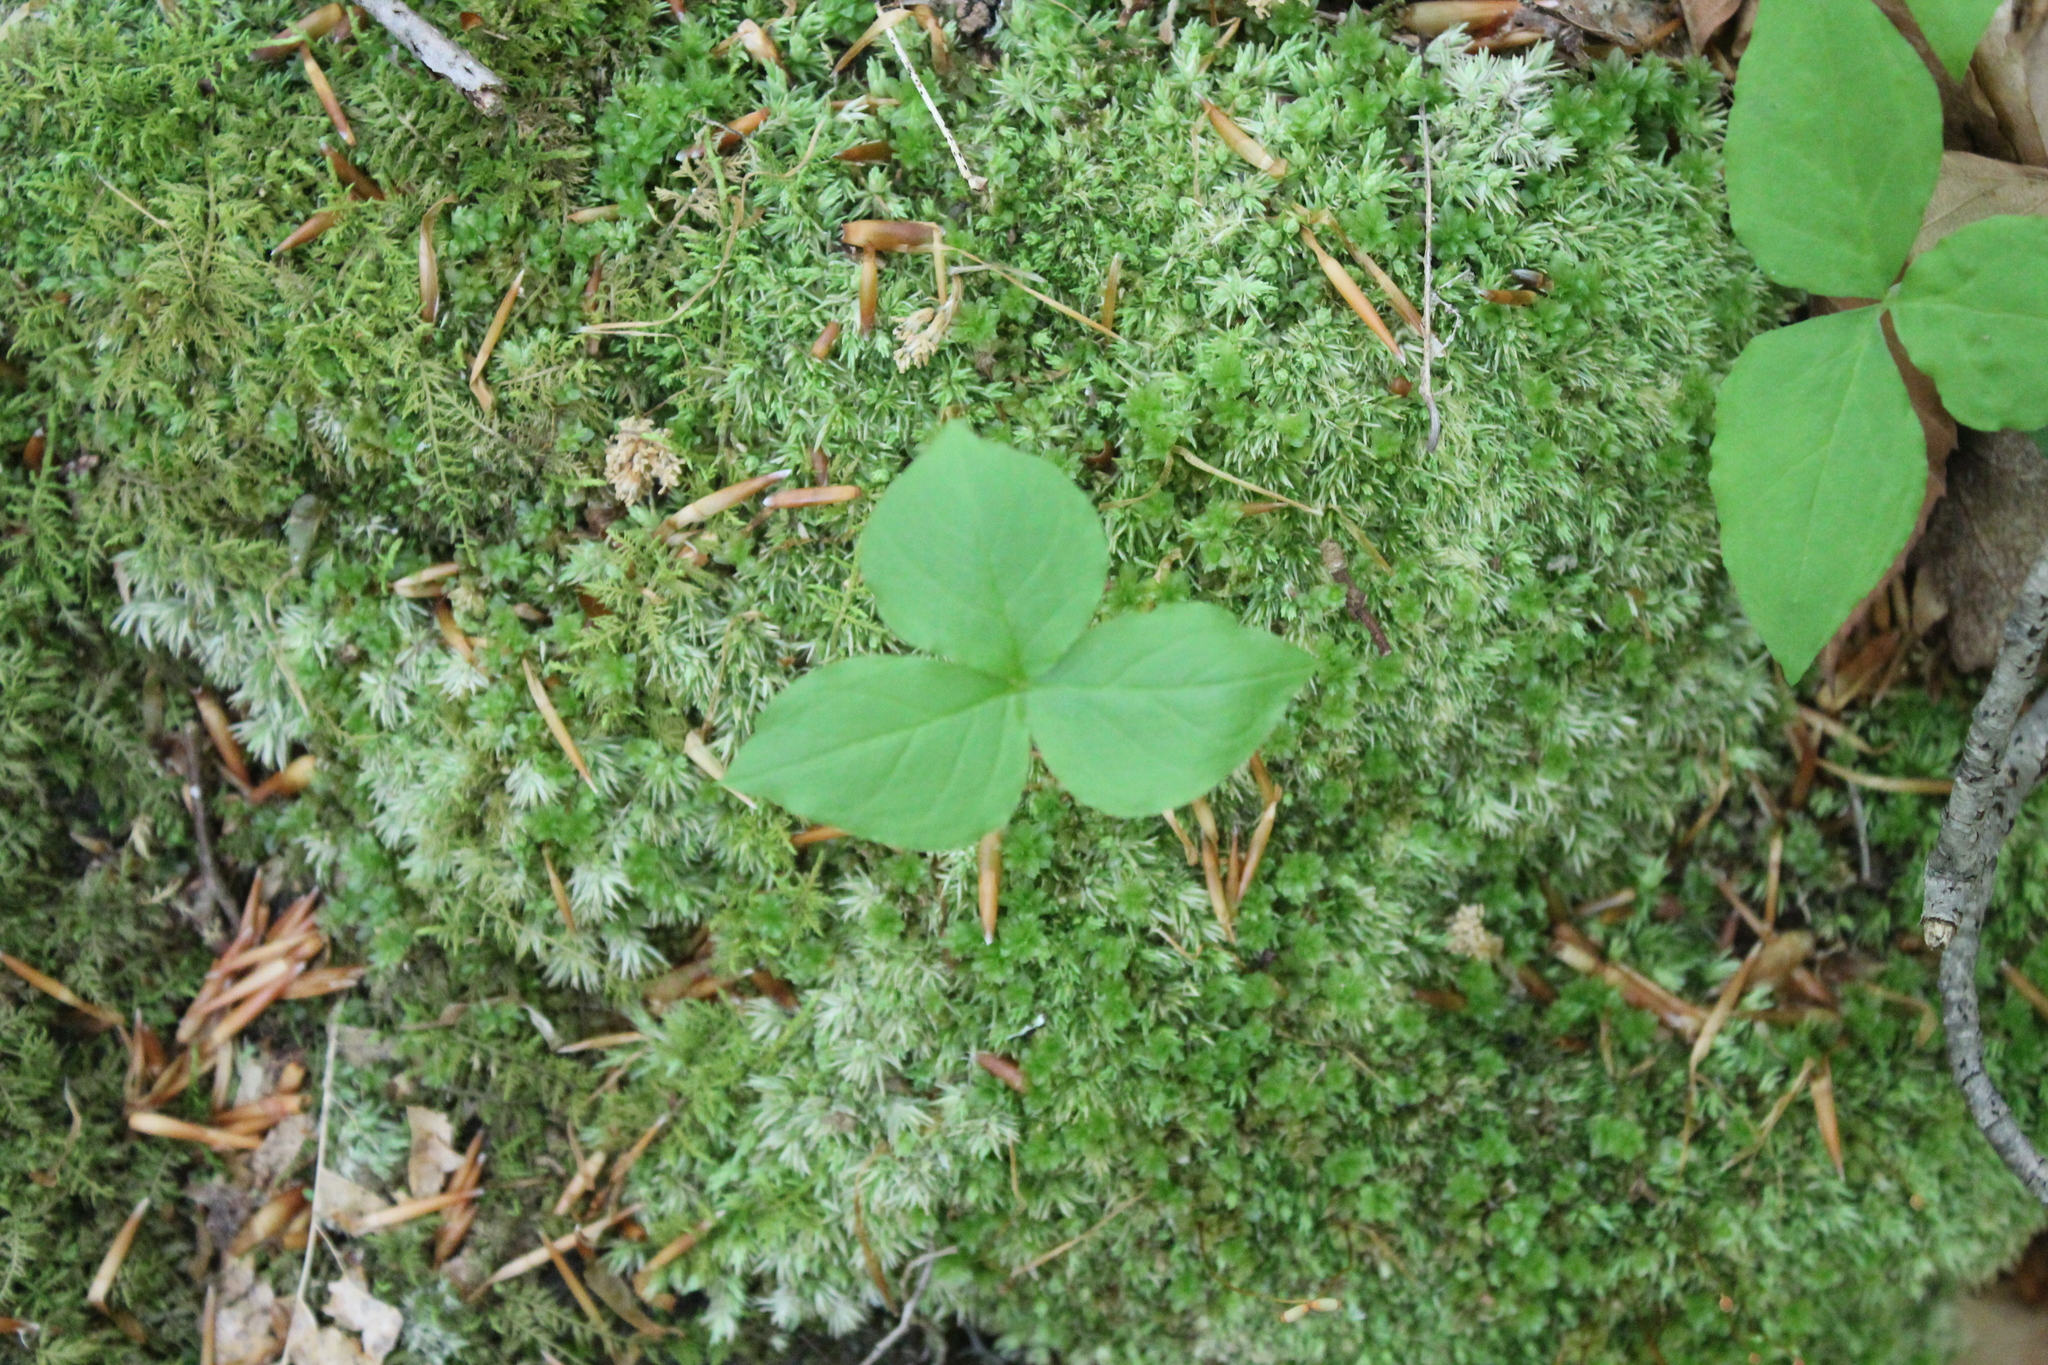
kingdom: Plantae
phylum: Tracheophyta
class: Liliopsida
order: Alismatales
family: Araceae
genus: Arisaema
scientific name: Arisaema triphyllum
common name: Jack-in-the-pulpit
